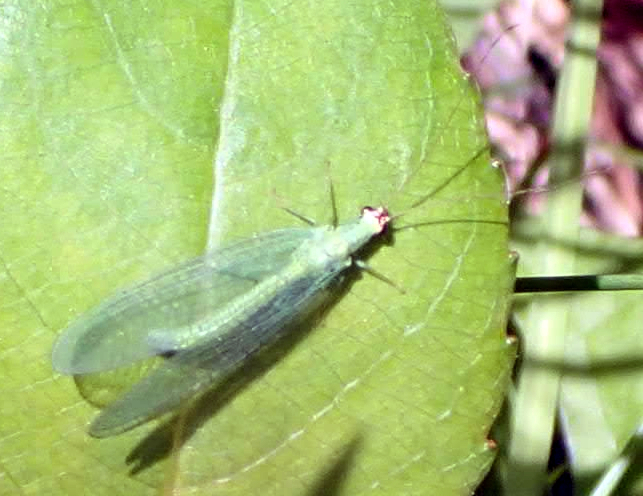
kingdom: Animalia
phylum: Arthropoda
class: Insecta
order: Neuroptera
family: Chrysopidae
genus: Chrysopa
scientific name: Chrysopa oculata
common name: Golden-eyed lacewing
